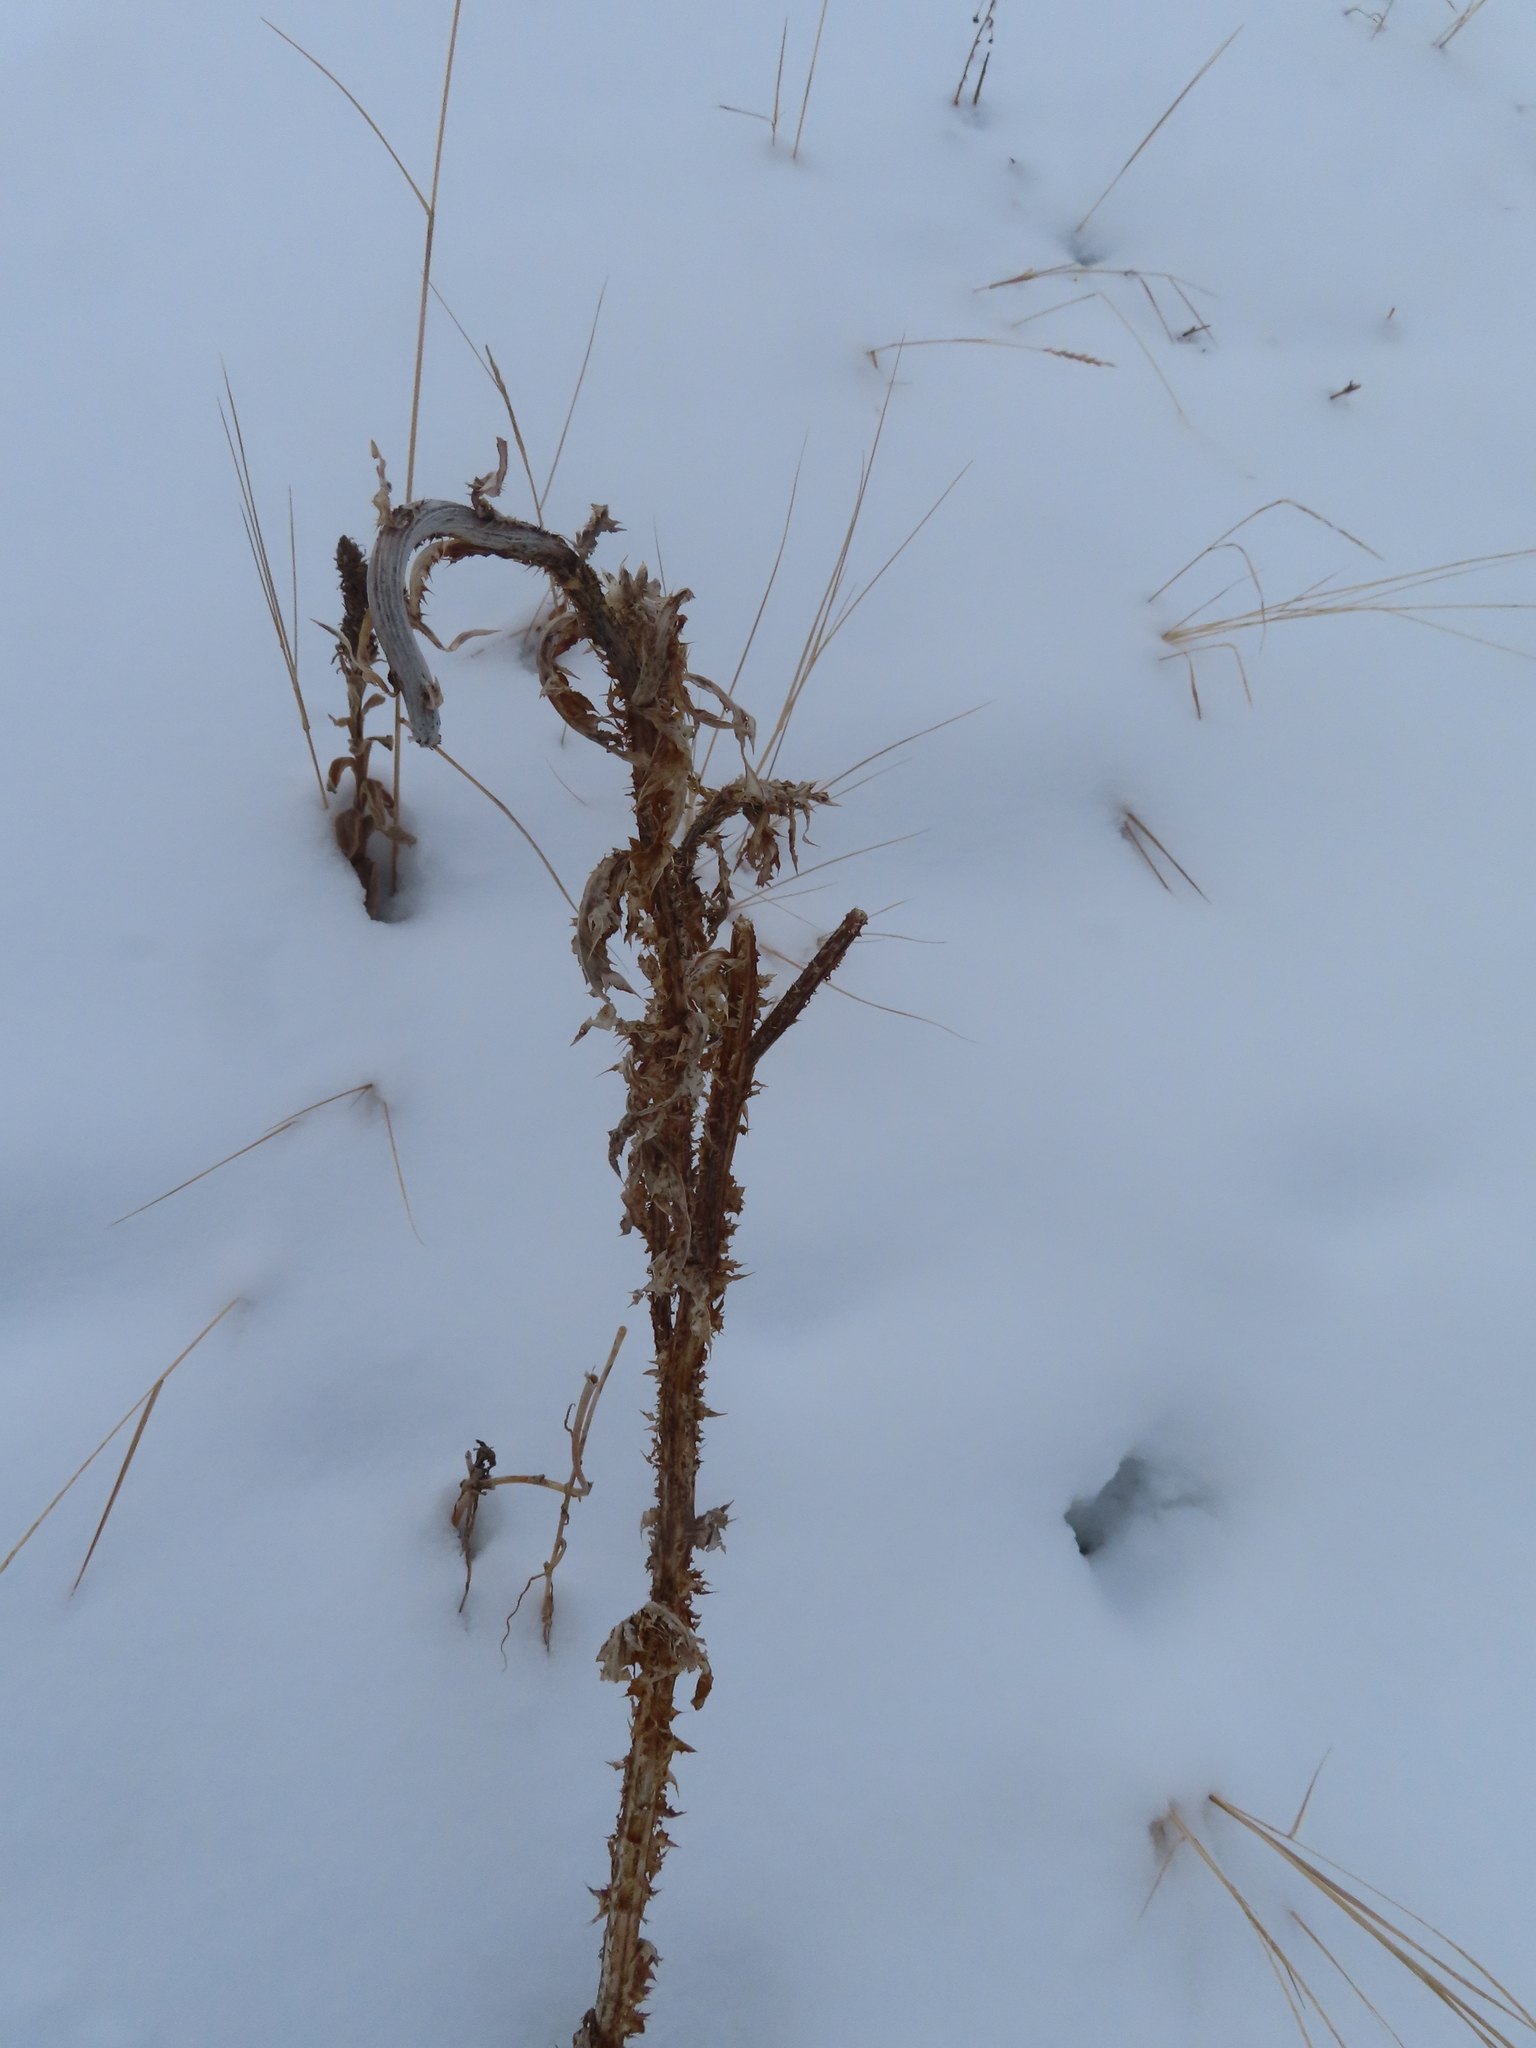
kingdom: Plantae
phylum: Tracheophyta
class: Magnoliopsida
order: Asterales
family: Asteraceae
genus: Carduus
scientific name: Carduus nutans
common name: Musk thistle
